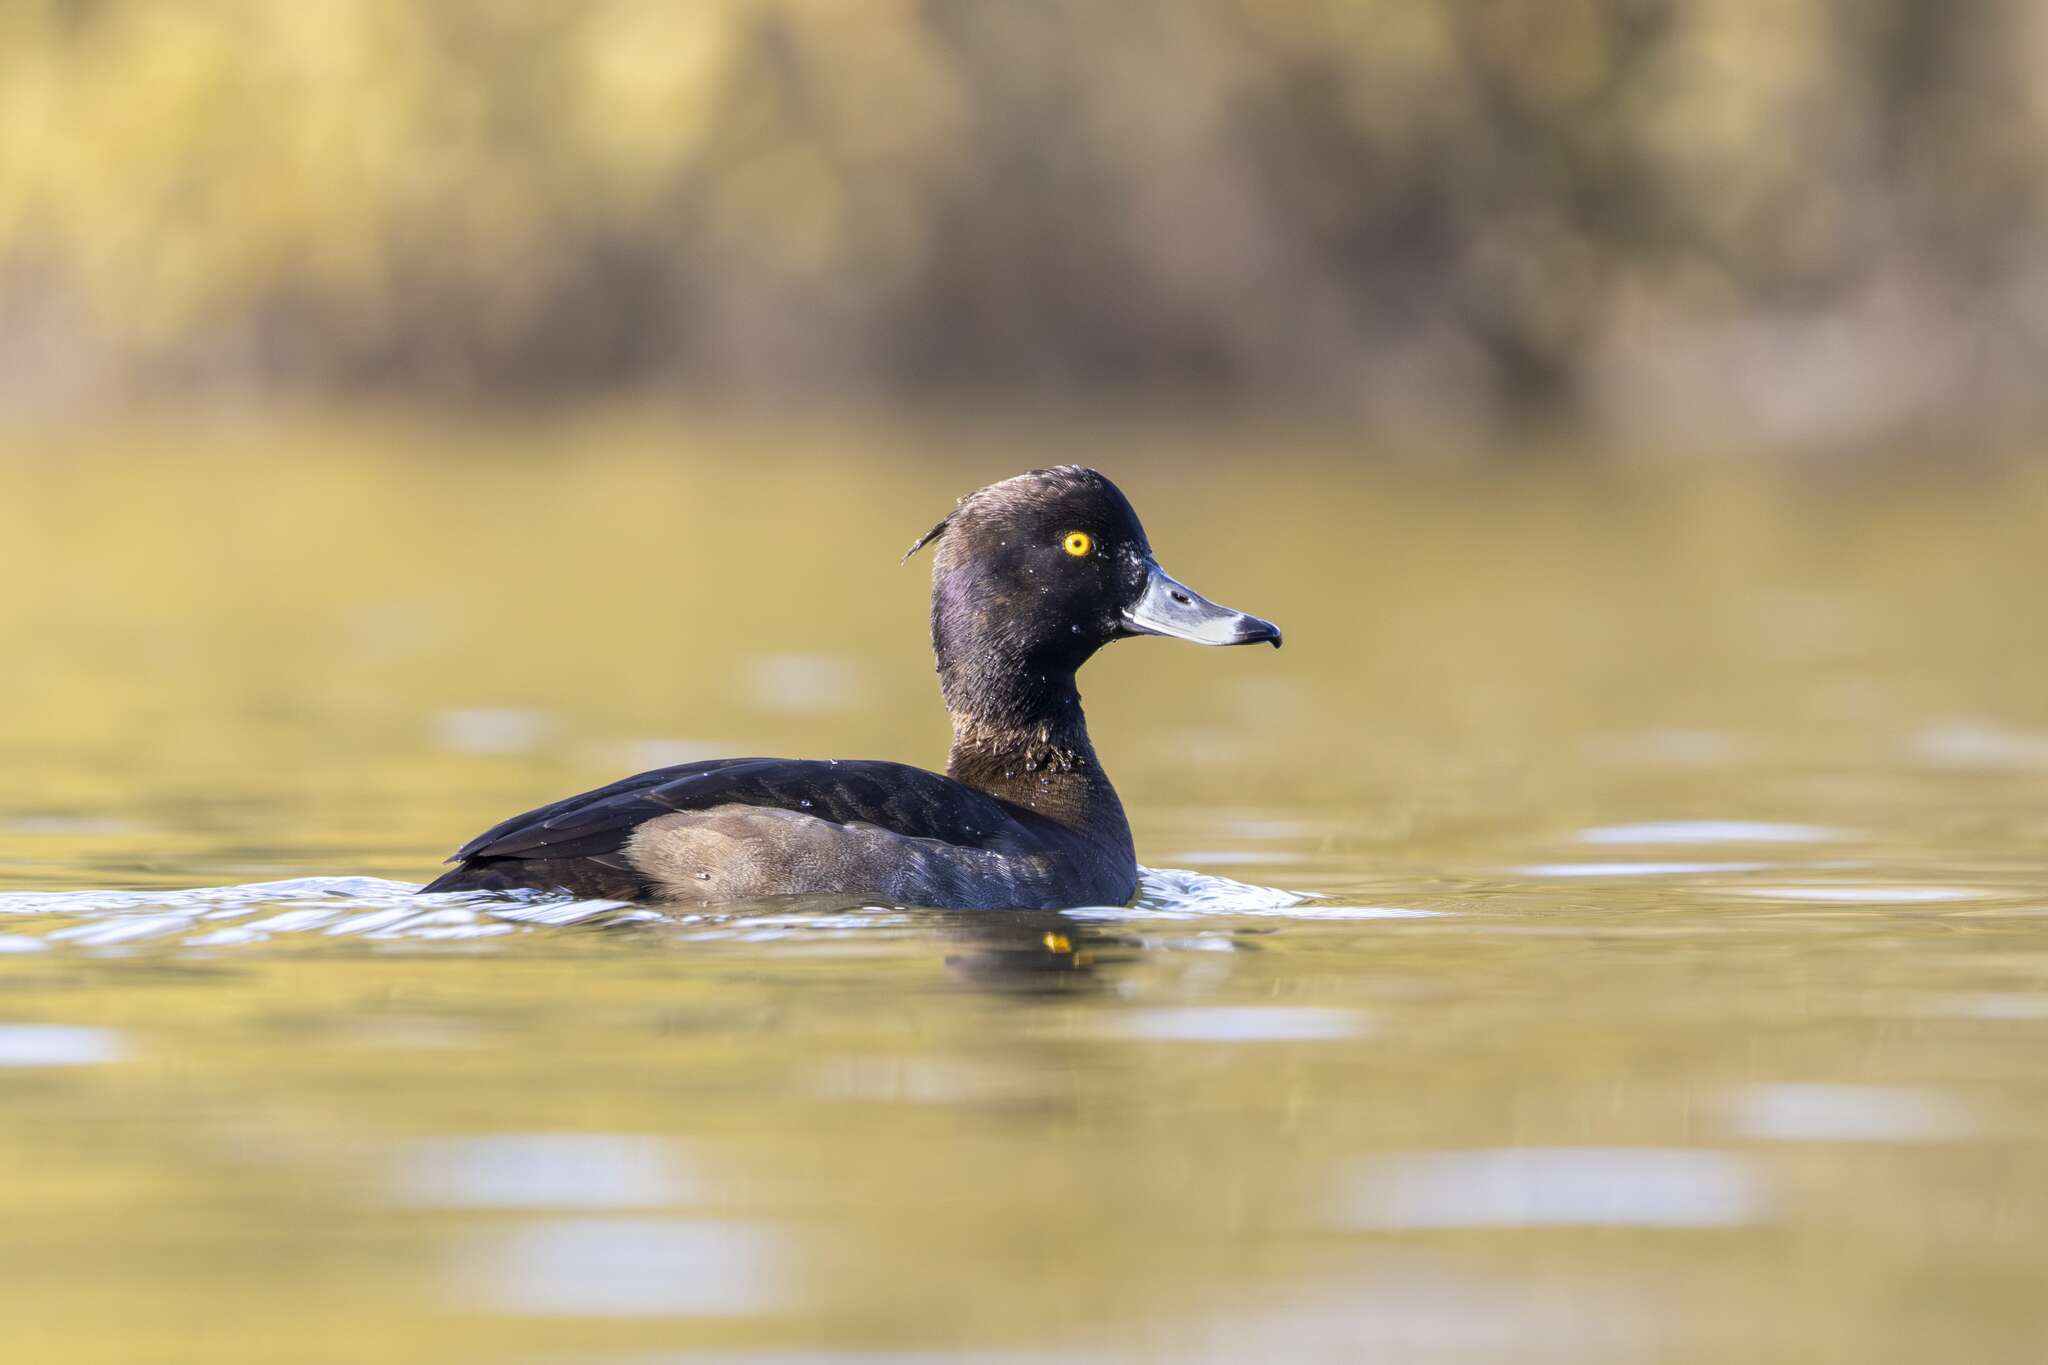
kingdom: Animalia
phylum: Chordata
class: Aves
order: Anseriformes
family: Anatidae
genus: Aythya
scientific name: Aythya fuligula
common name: Tufted duck
